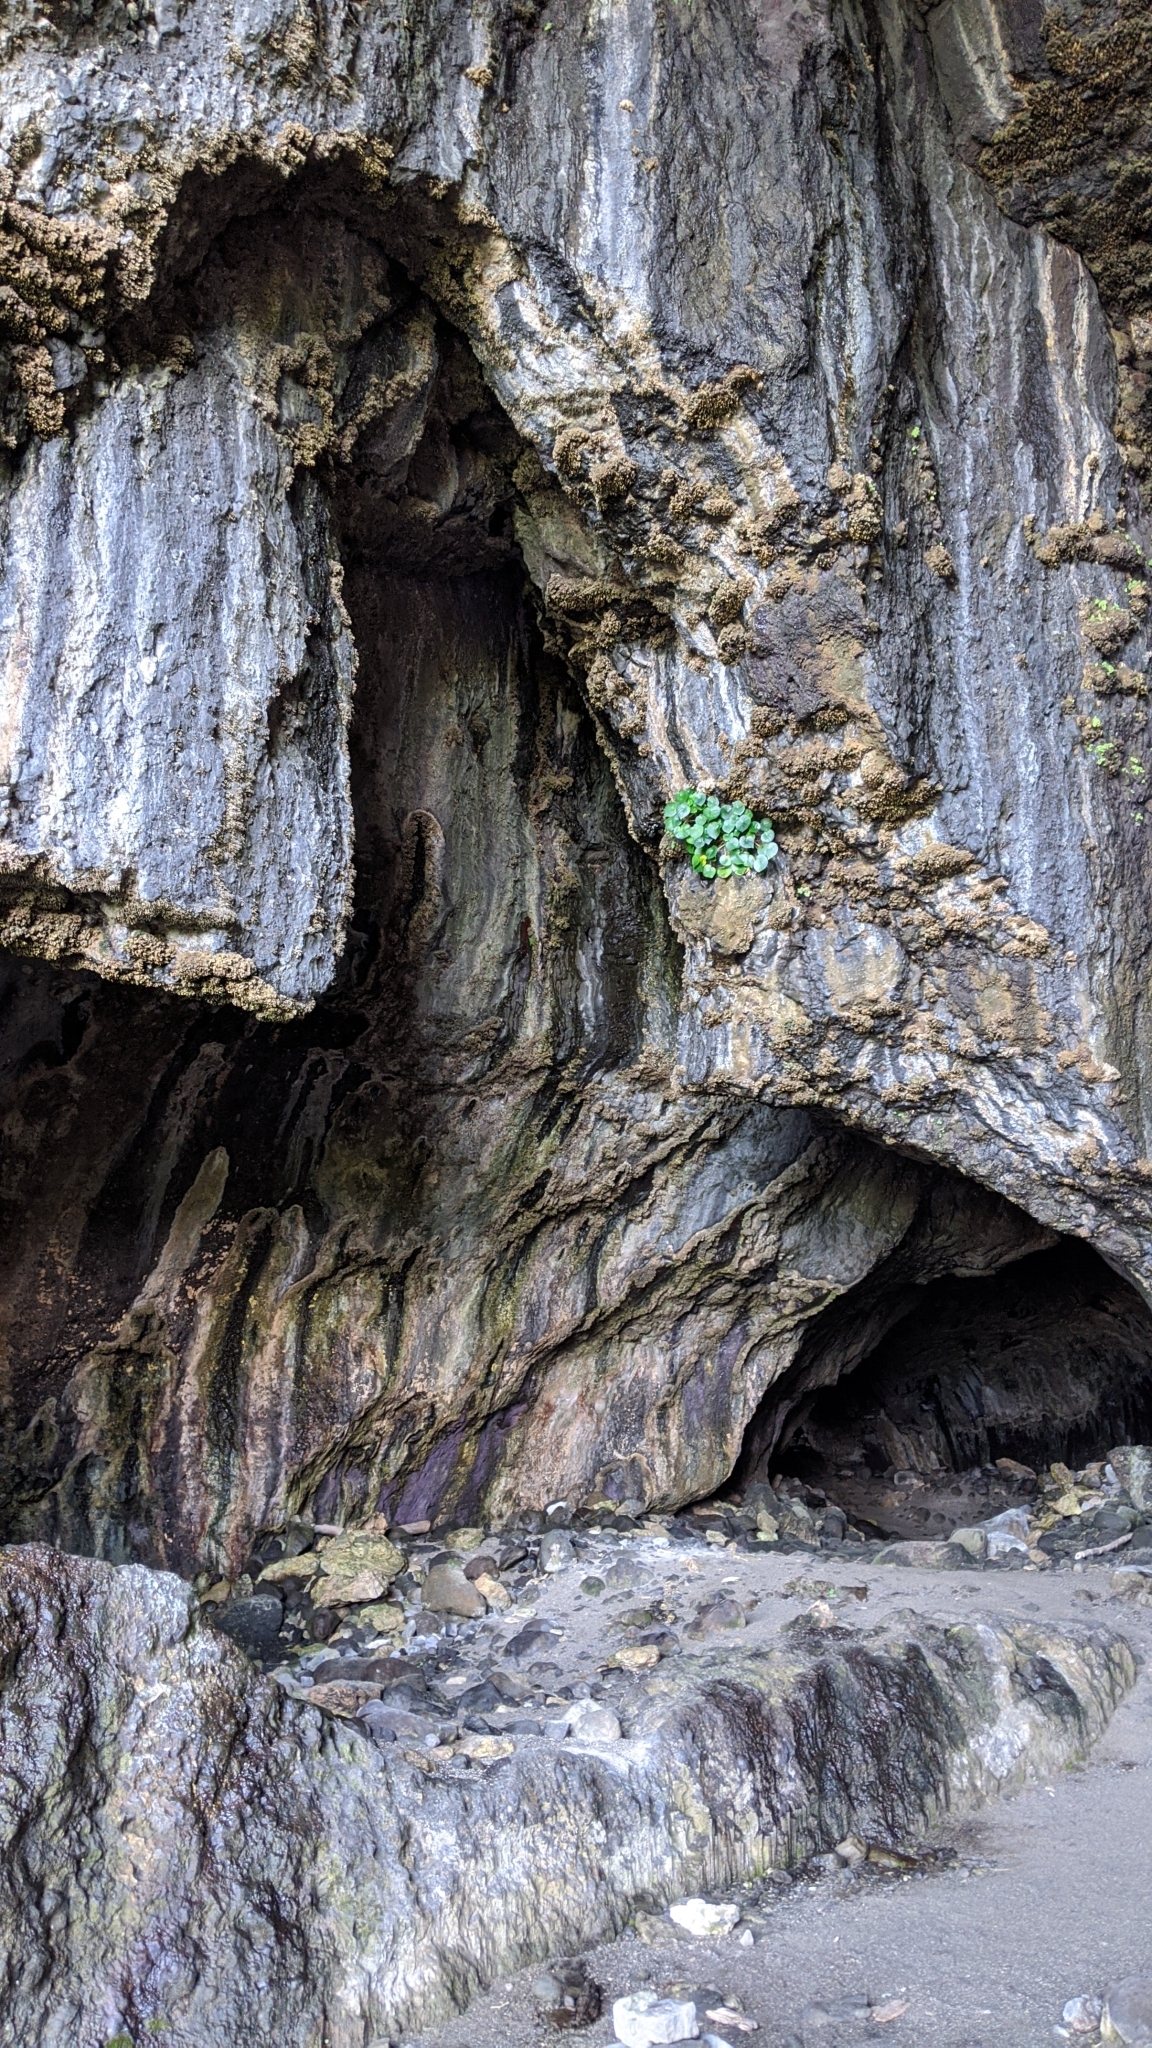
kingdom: Plantae
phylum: Tracheophyta
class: Magnoliopsida
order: Cucurbitales
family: Begoniaceae
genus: Begonia
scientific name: Begonia fenicis
